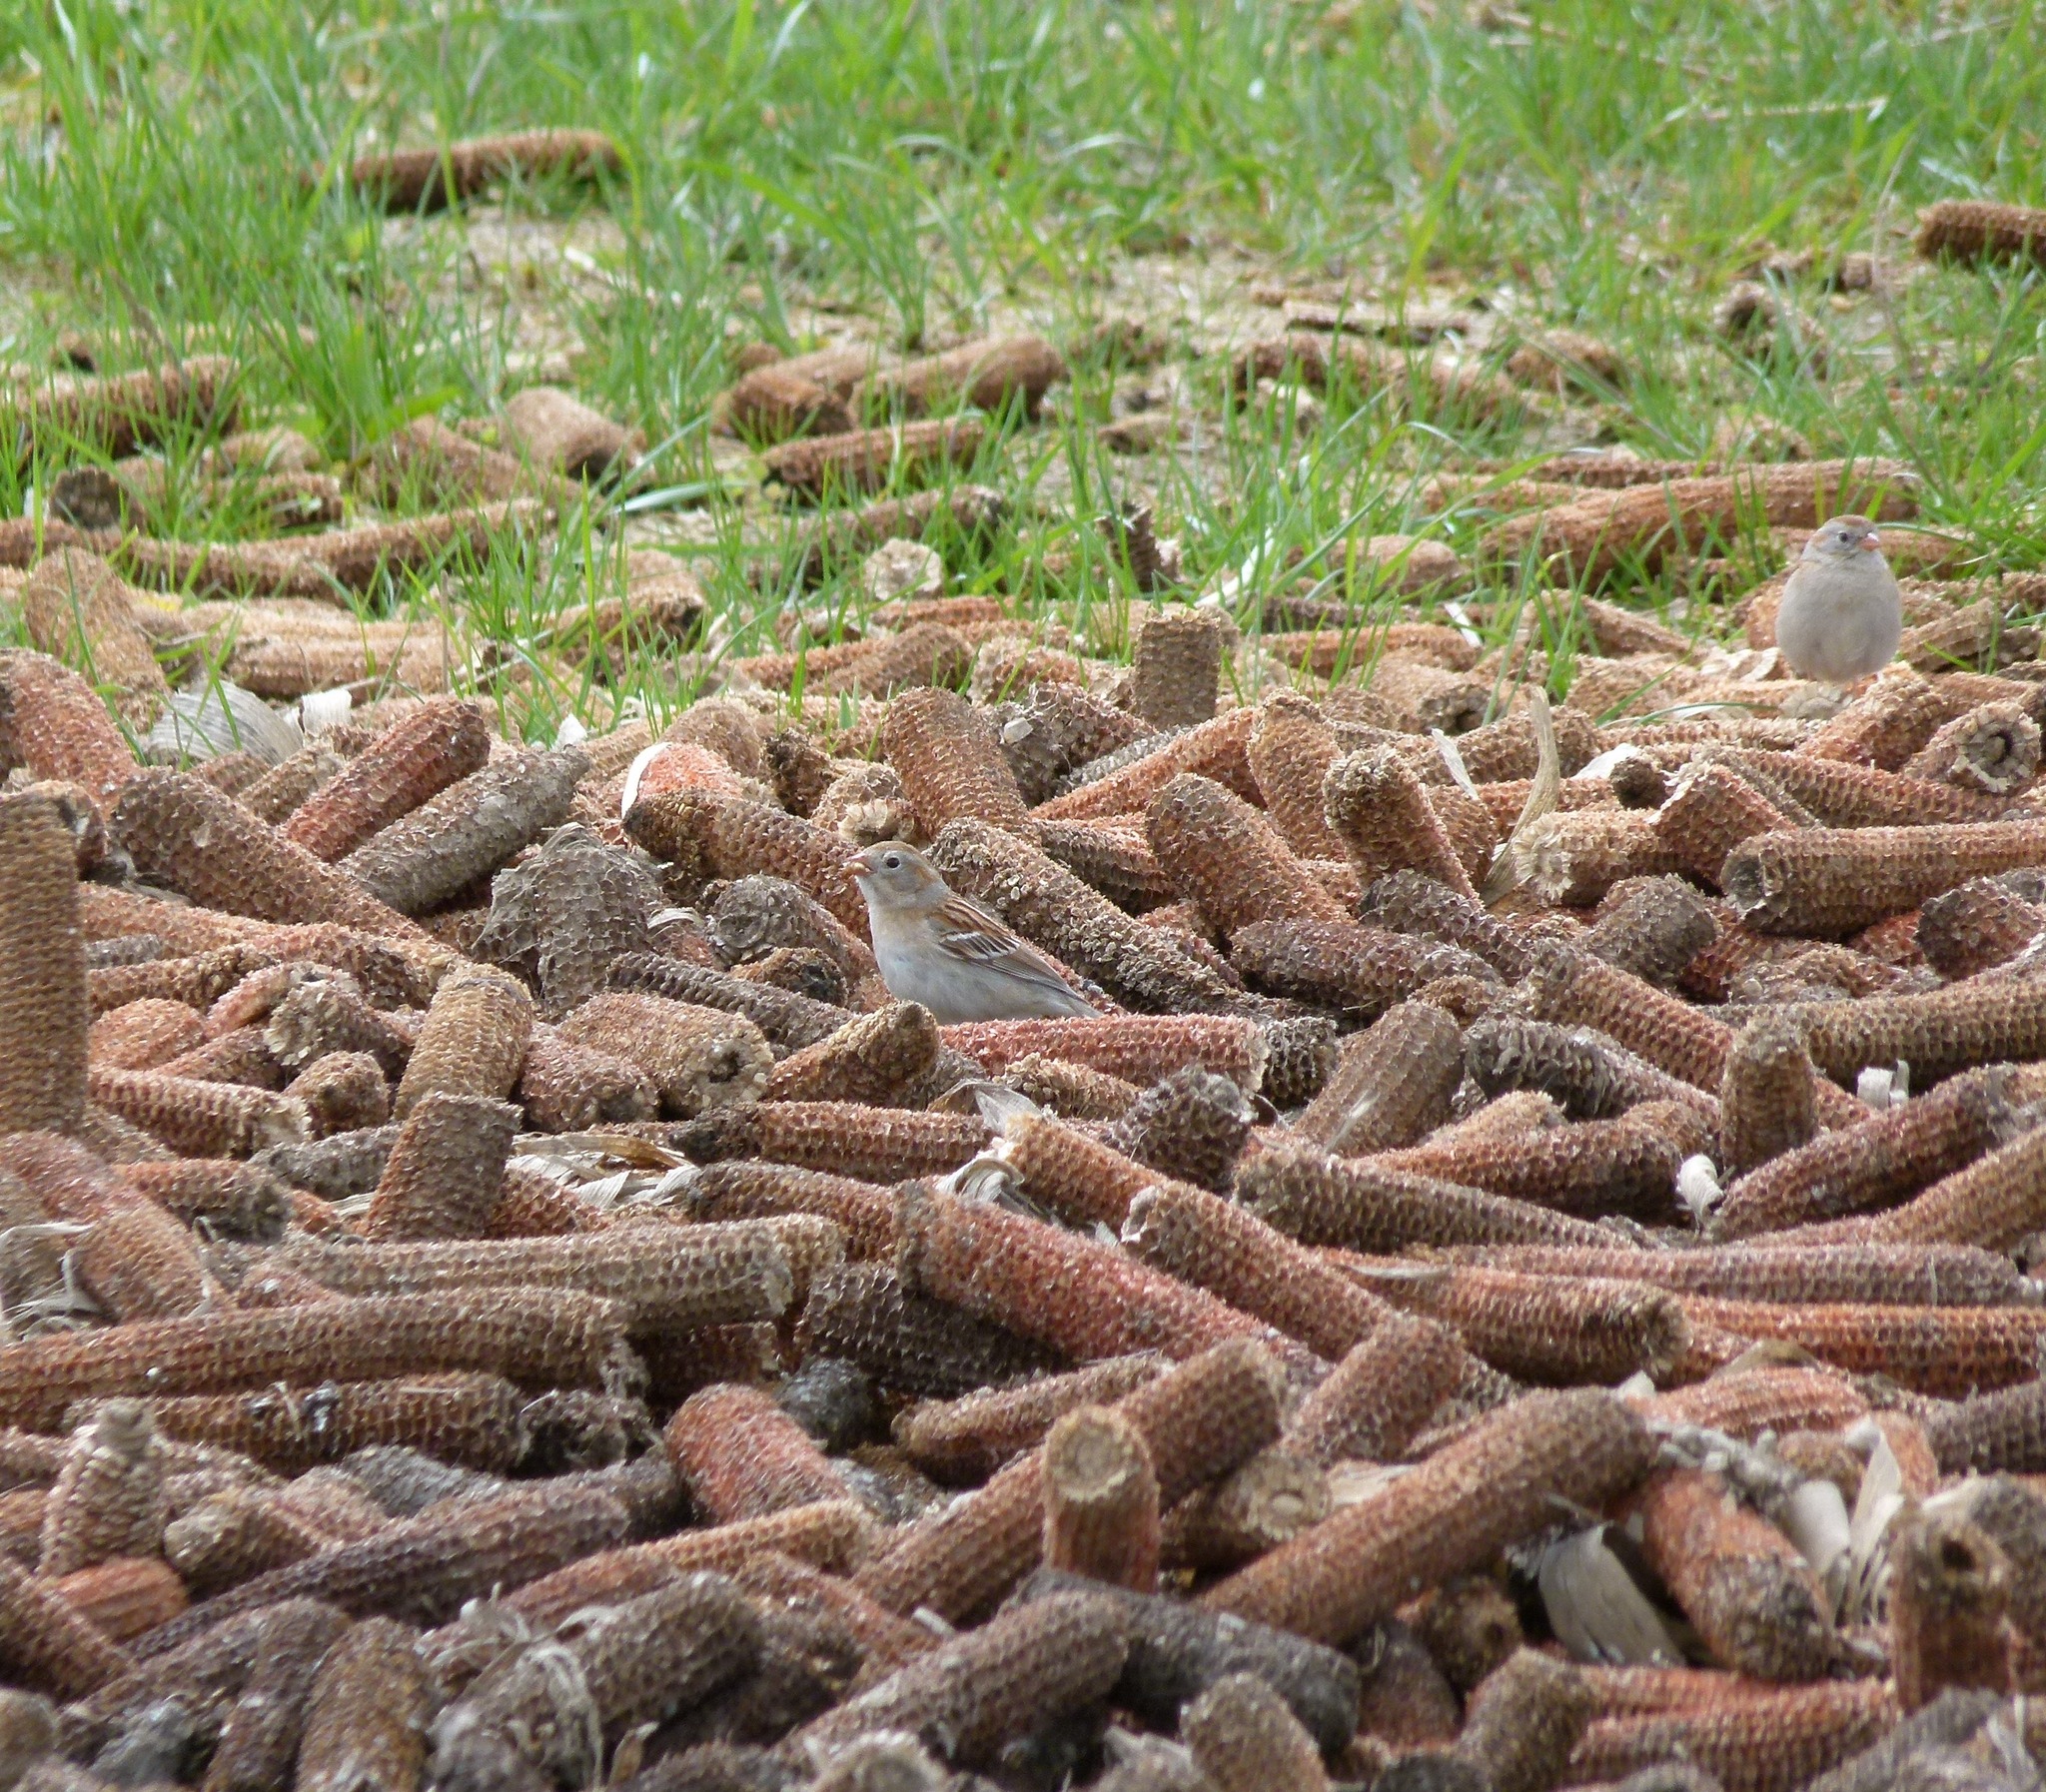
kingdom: Animalia
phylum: Chordata
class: Aves
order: Passeriformes
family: Passerellidae
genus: Spizella
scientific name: Spizella pusilla
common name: Field sparrow
